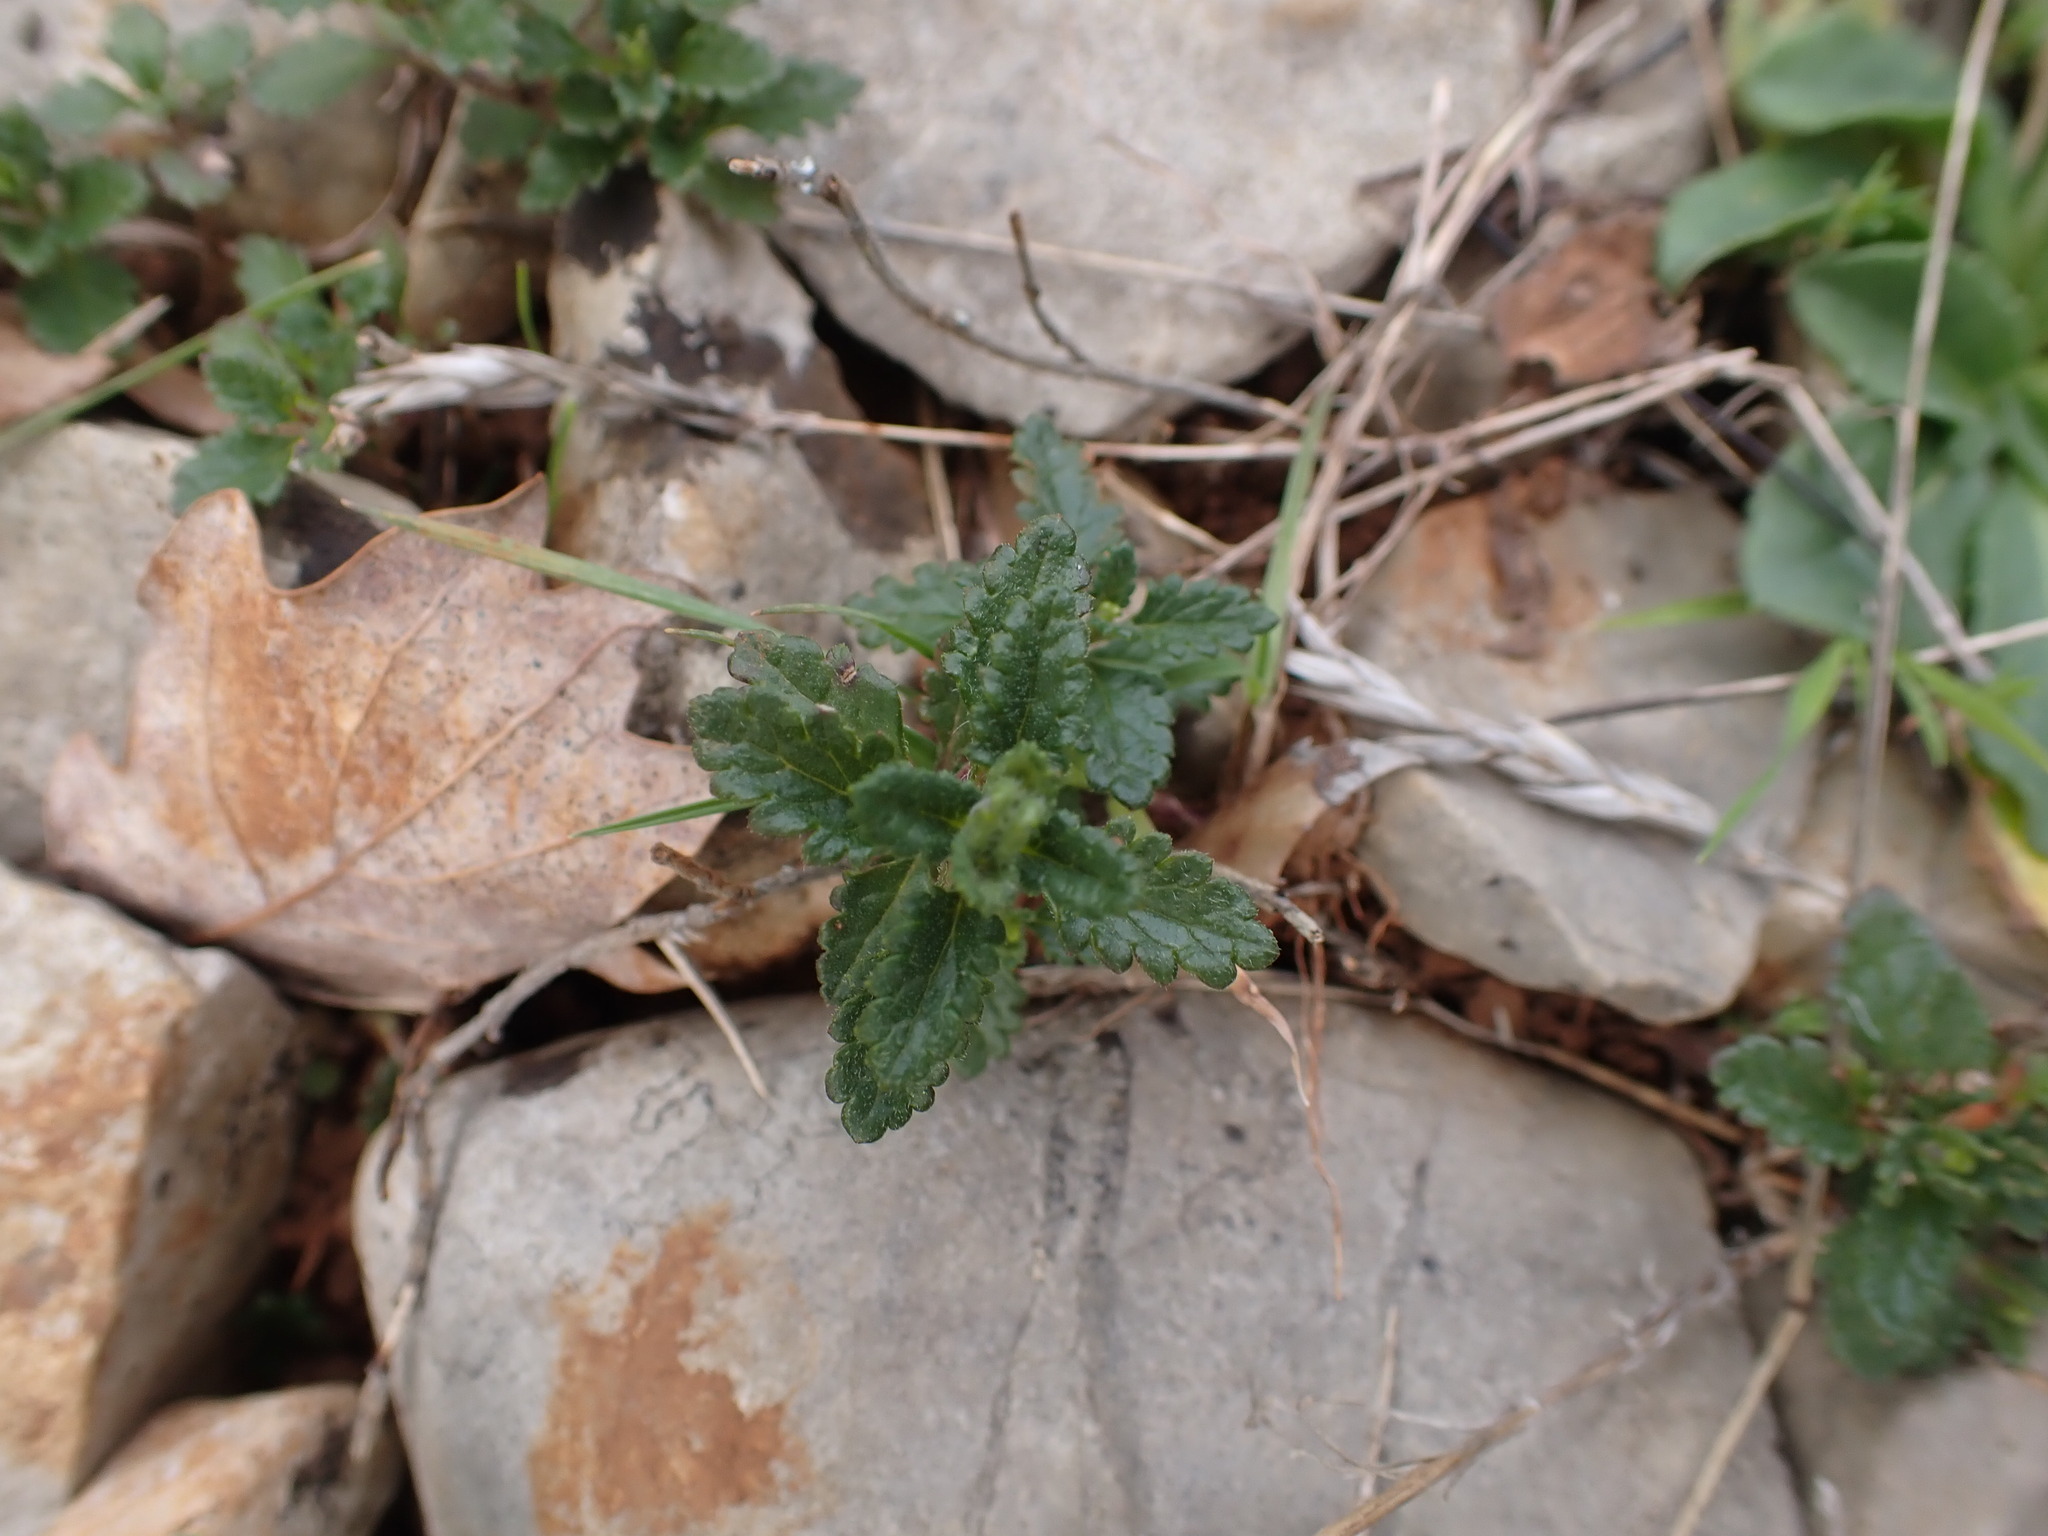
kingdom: Plantae
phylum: Tracheophyta
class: Magnoliopsida
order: Lamiales
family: Lamiaceae
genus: Teucrium
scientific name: Teucrium chamaedrys
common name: Wall germander
